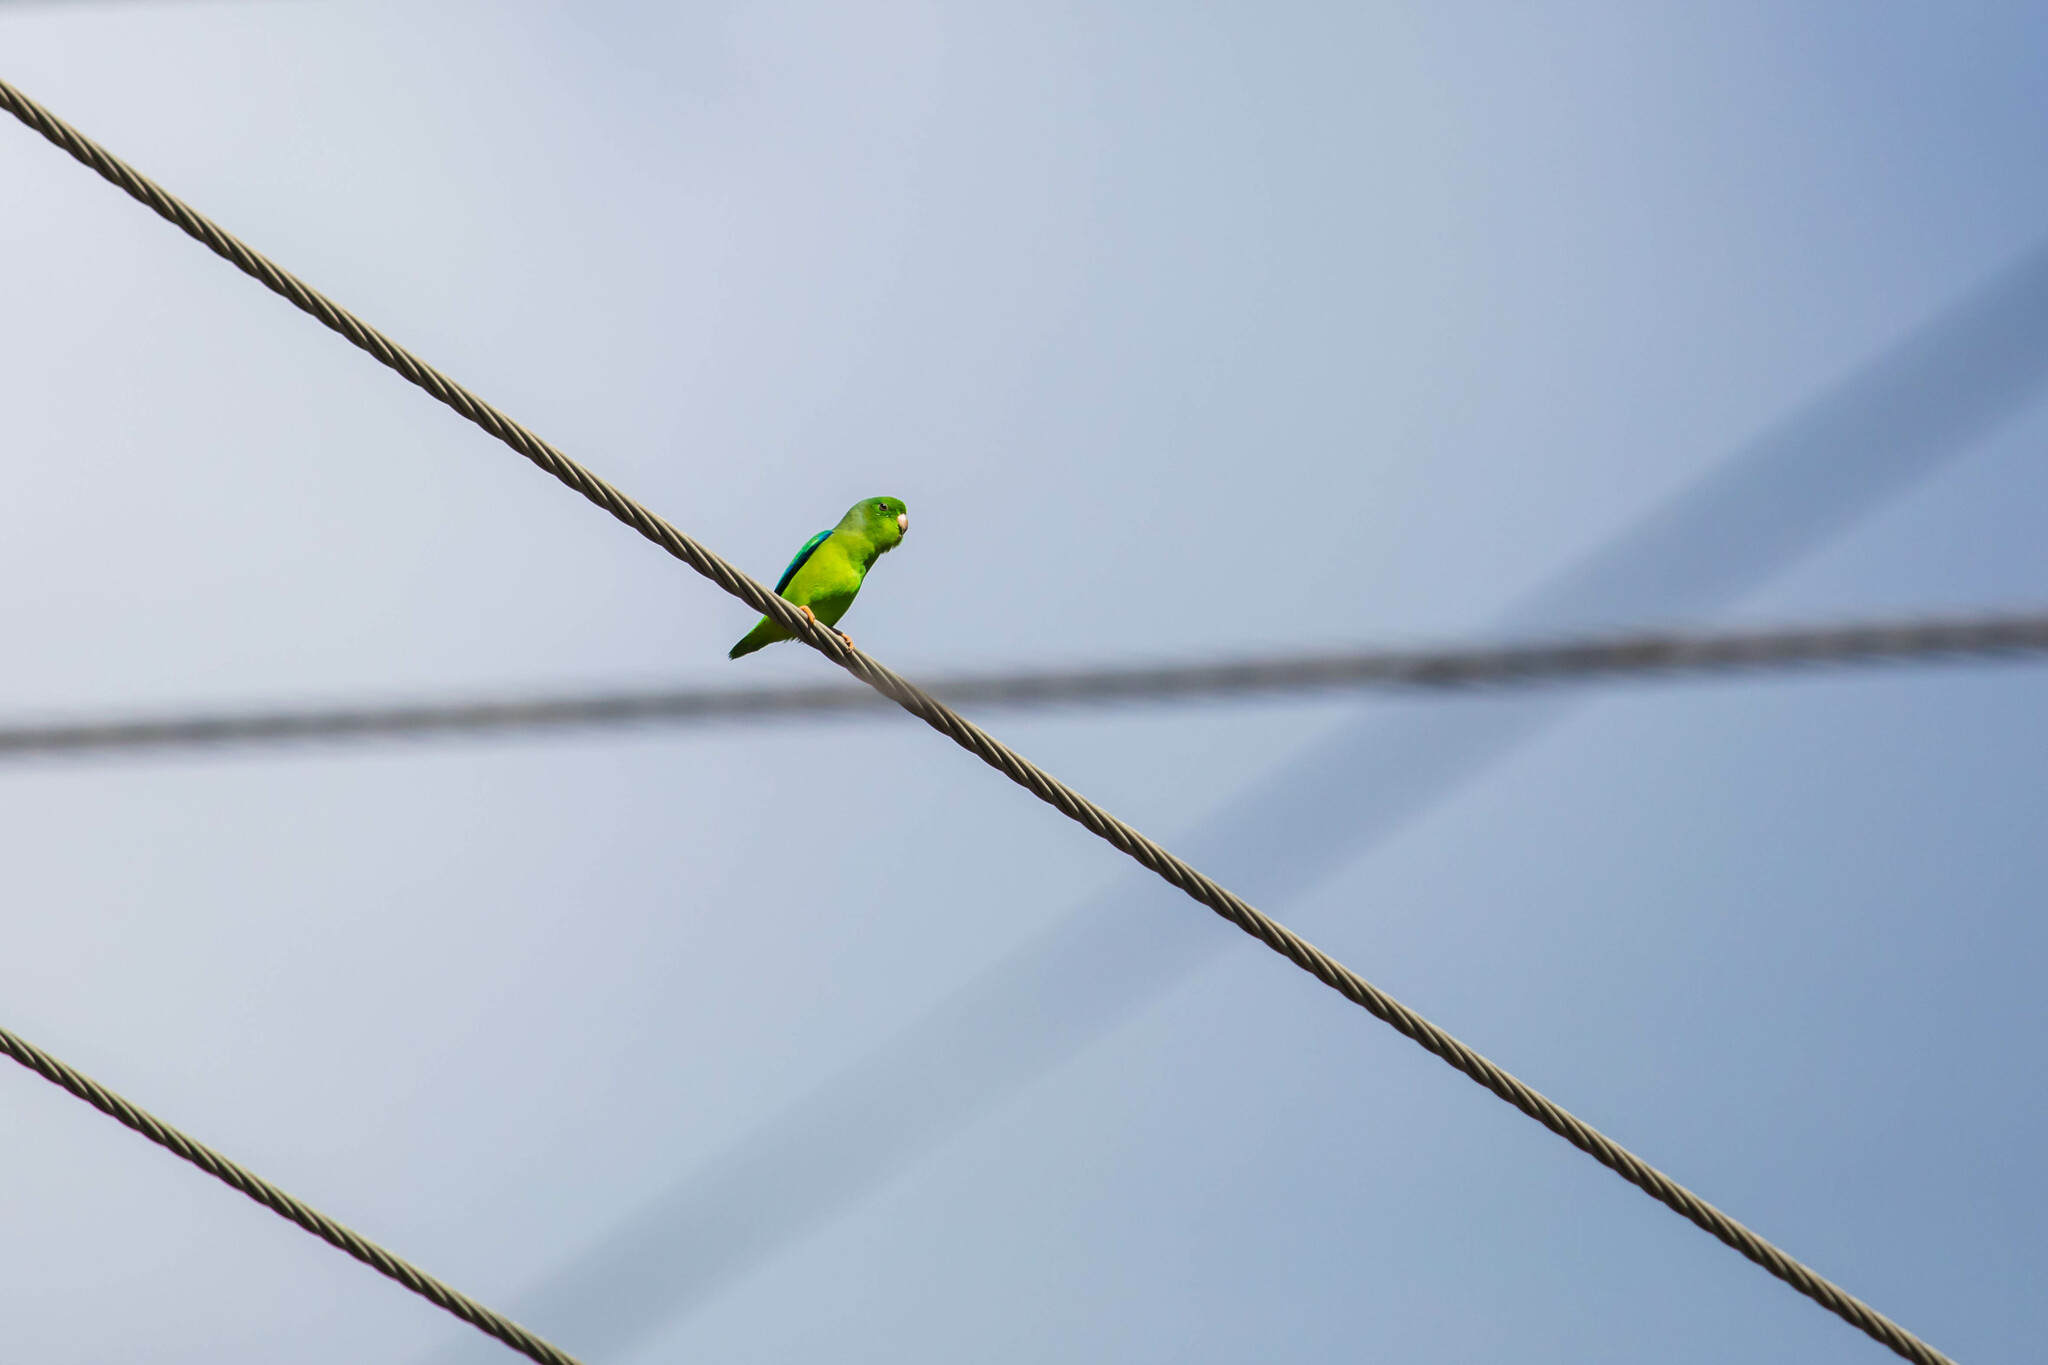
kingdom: Animalia
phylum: Chordata
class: Aves
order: Psittaciformes
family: Psittacidae
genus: Forpus
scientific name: Forpus passerinus
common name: Green-rumped parrotlet
